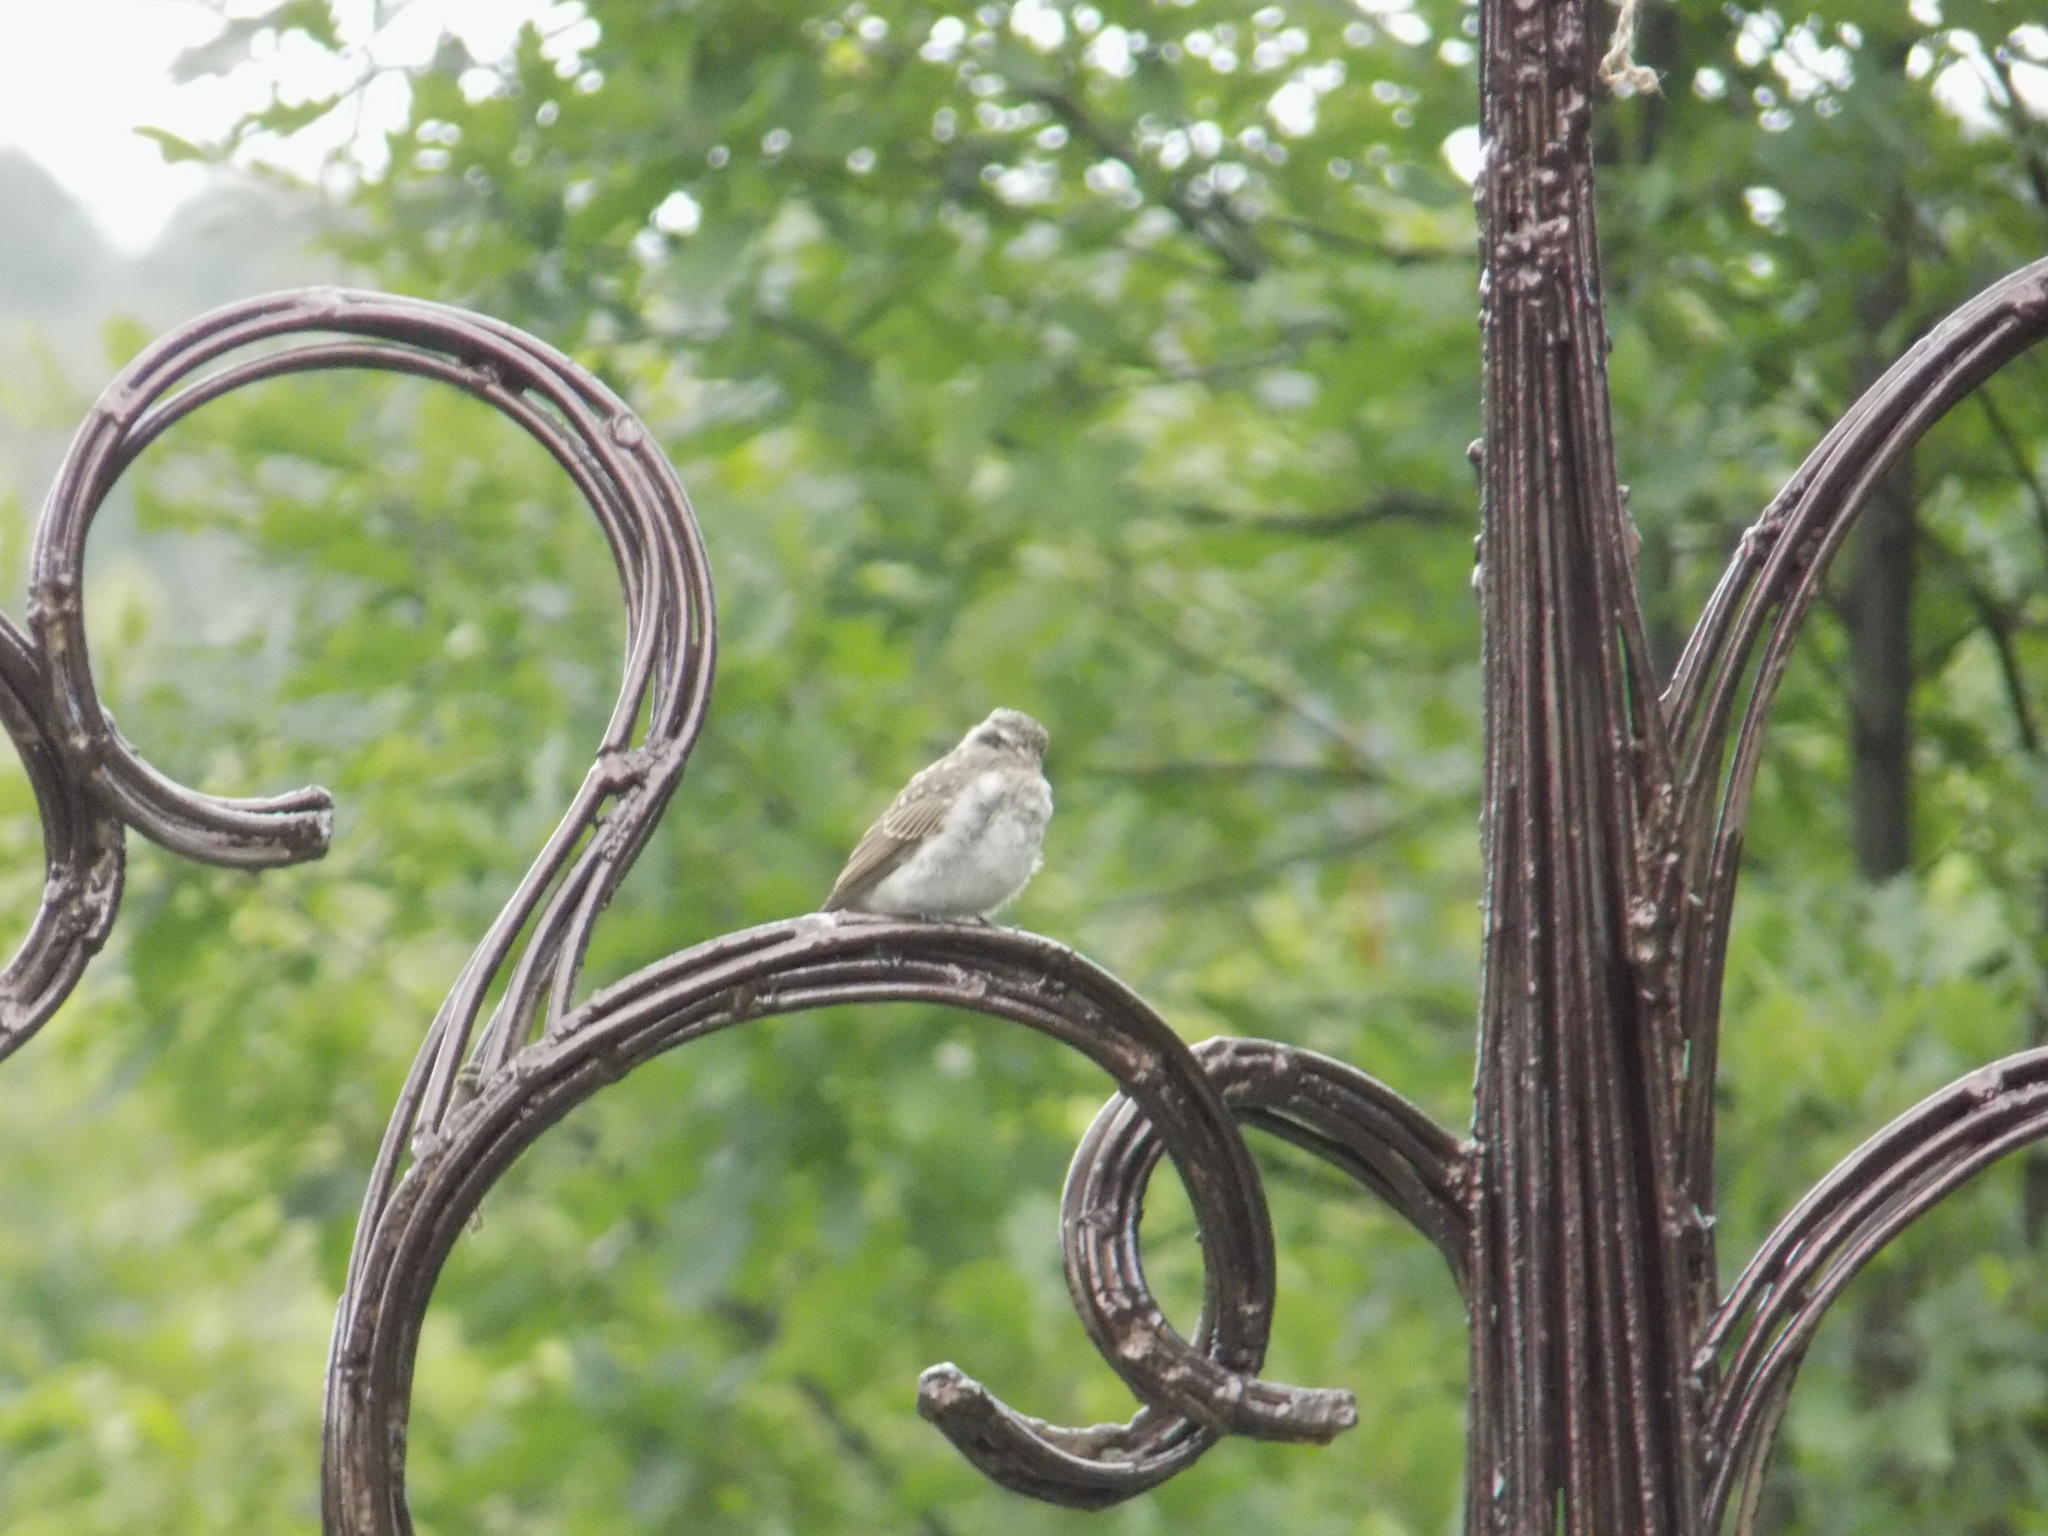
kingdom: Animalia
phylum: Chordata
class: Aves
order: Passeriformes
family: Muscicapidae
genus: Muscicapa
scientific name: Muscicapa striata
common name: Spotted flycatcher
